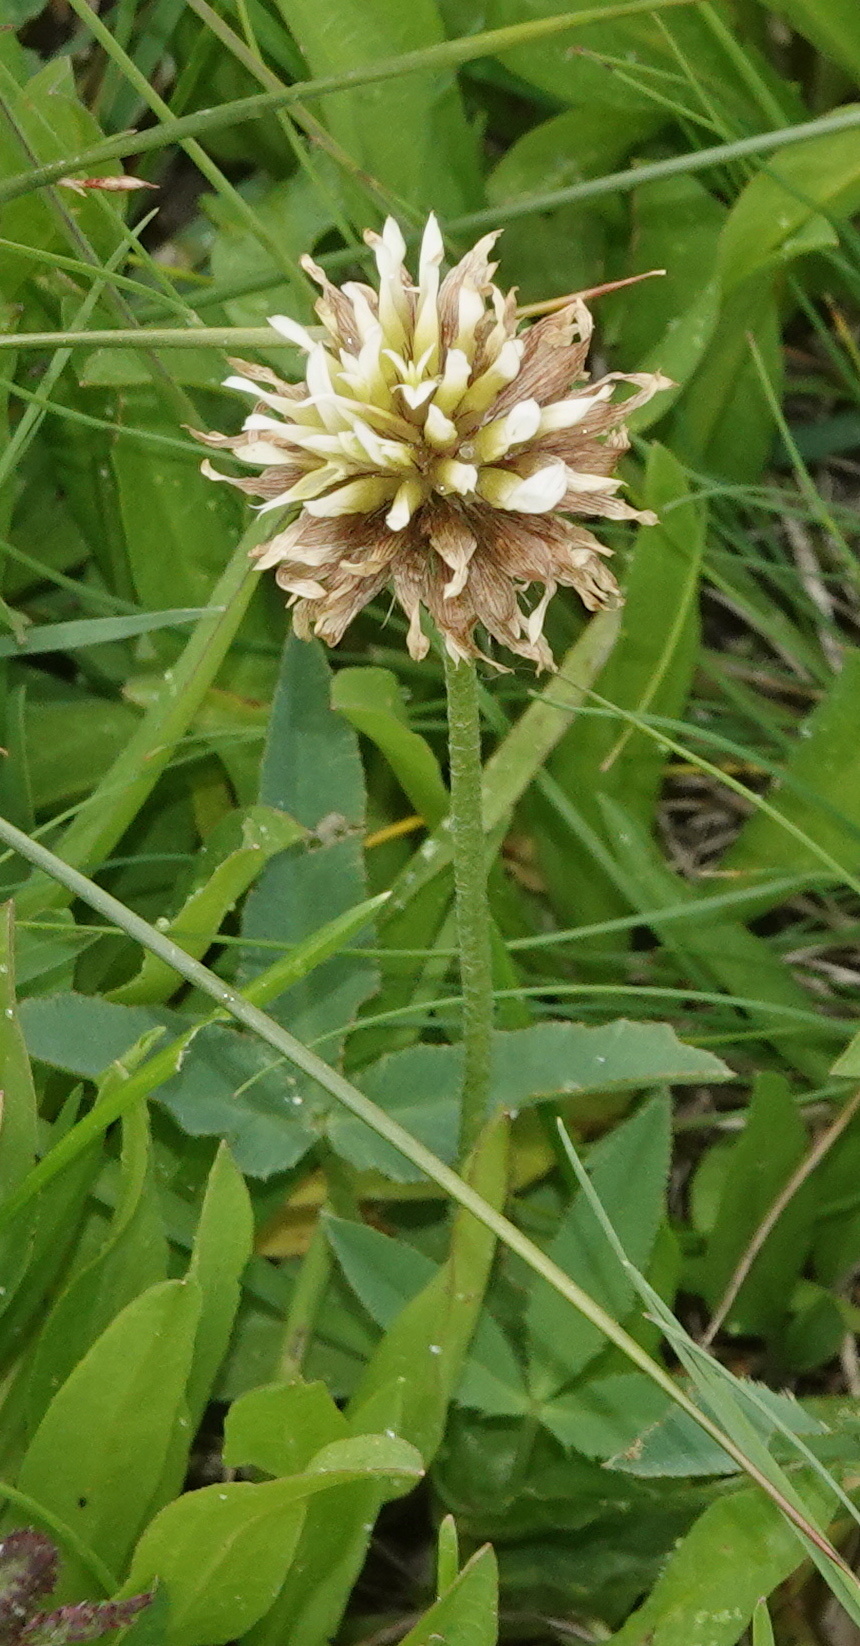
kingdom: Plantae
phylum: Tracheophyta
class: Magnoliopsida
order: Fabales
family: Fabaceae
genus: Trifolium
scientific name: Trifolium longipes
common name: Long-stalk clover
